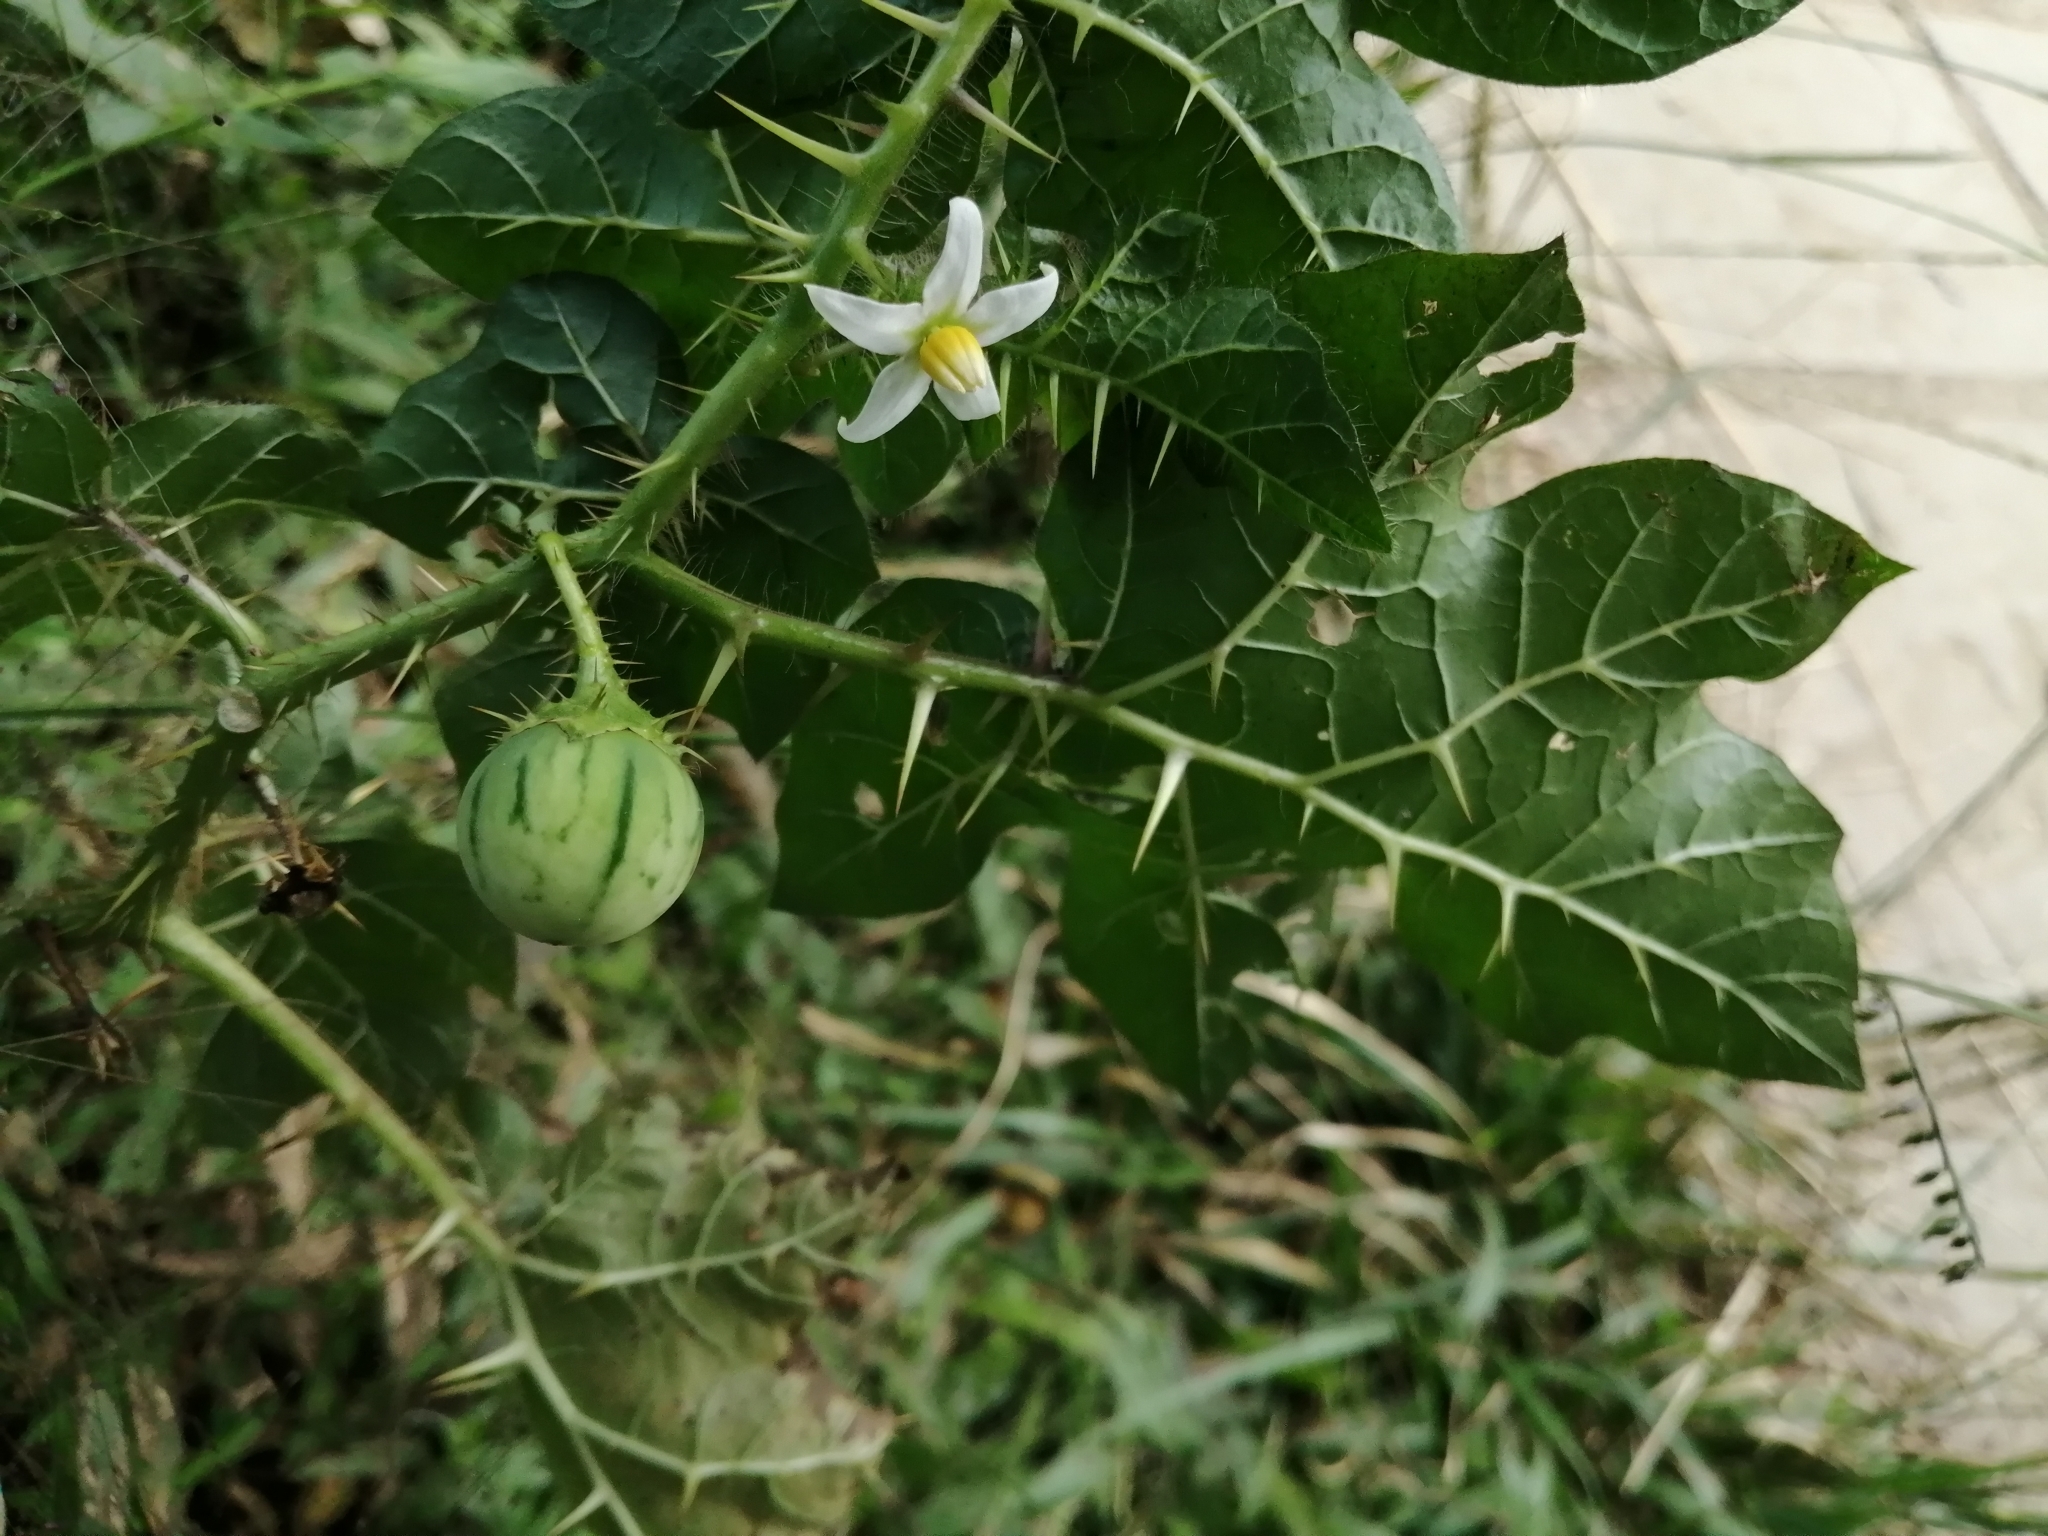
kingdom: Plantae
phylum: Tracheophyta
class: Magnoliopsida
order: Solanales
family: Solanaceae
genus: Solanum
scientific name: Solanum capsicoides
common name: Cockroach berry
